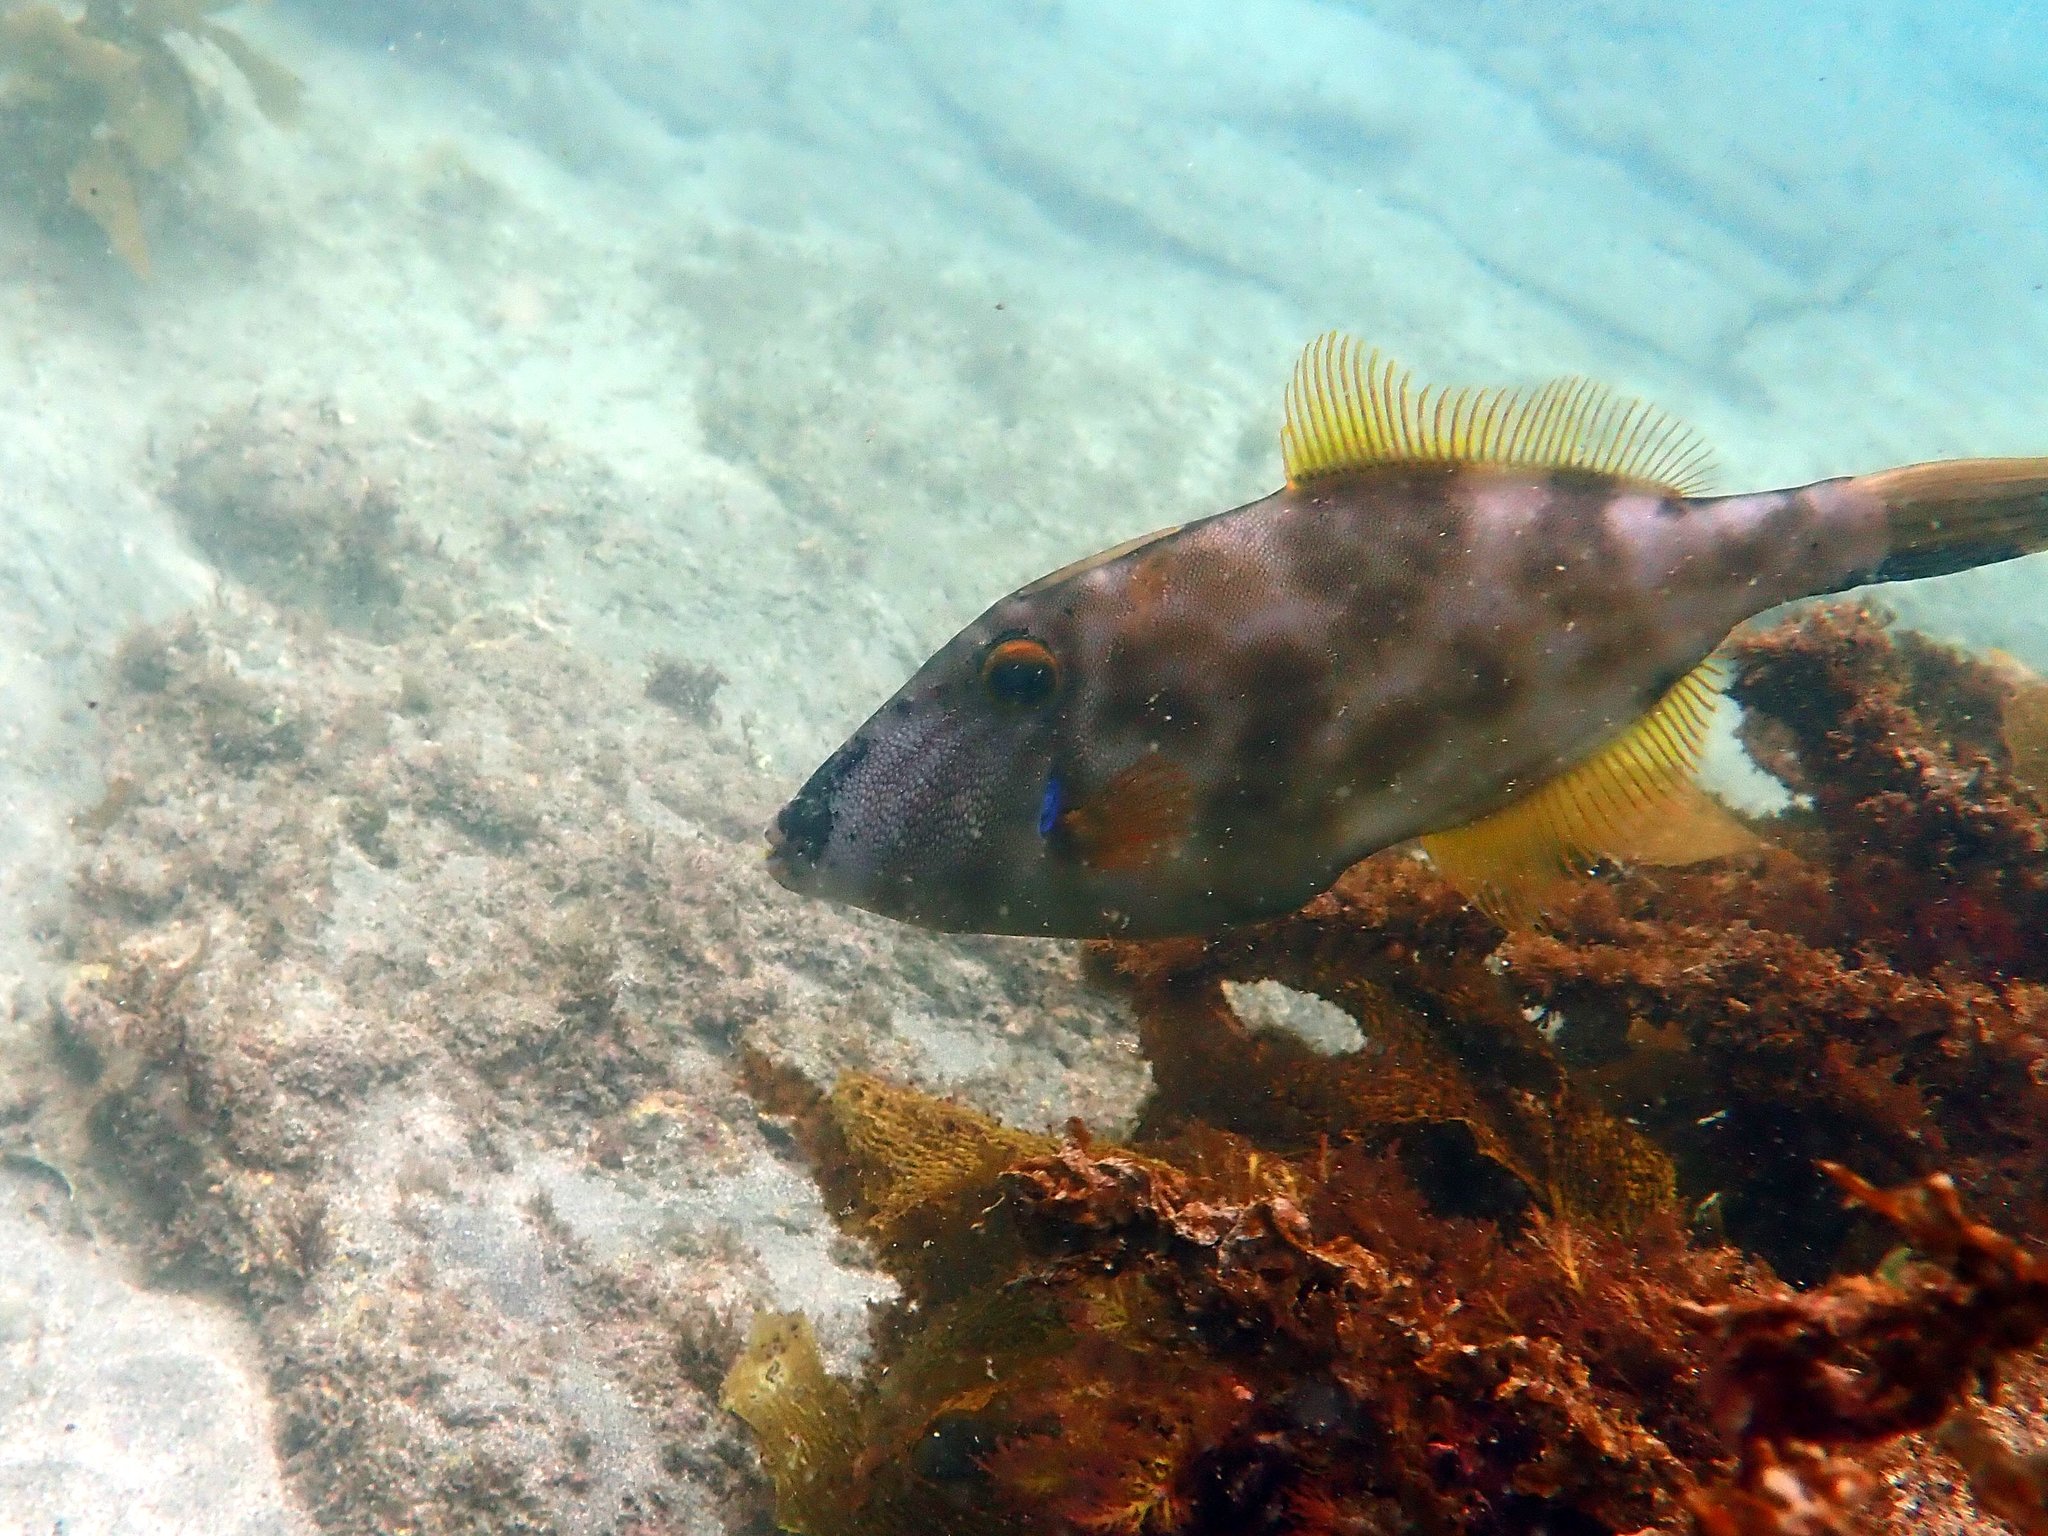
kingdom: Animalia
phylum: Chordata
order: Tetraodontiformes
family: Monacanthidae
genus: Meuschenia
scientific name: Meuschenia scaber
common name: Cosmopolitan leatherjacket
